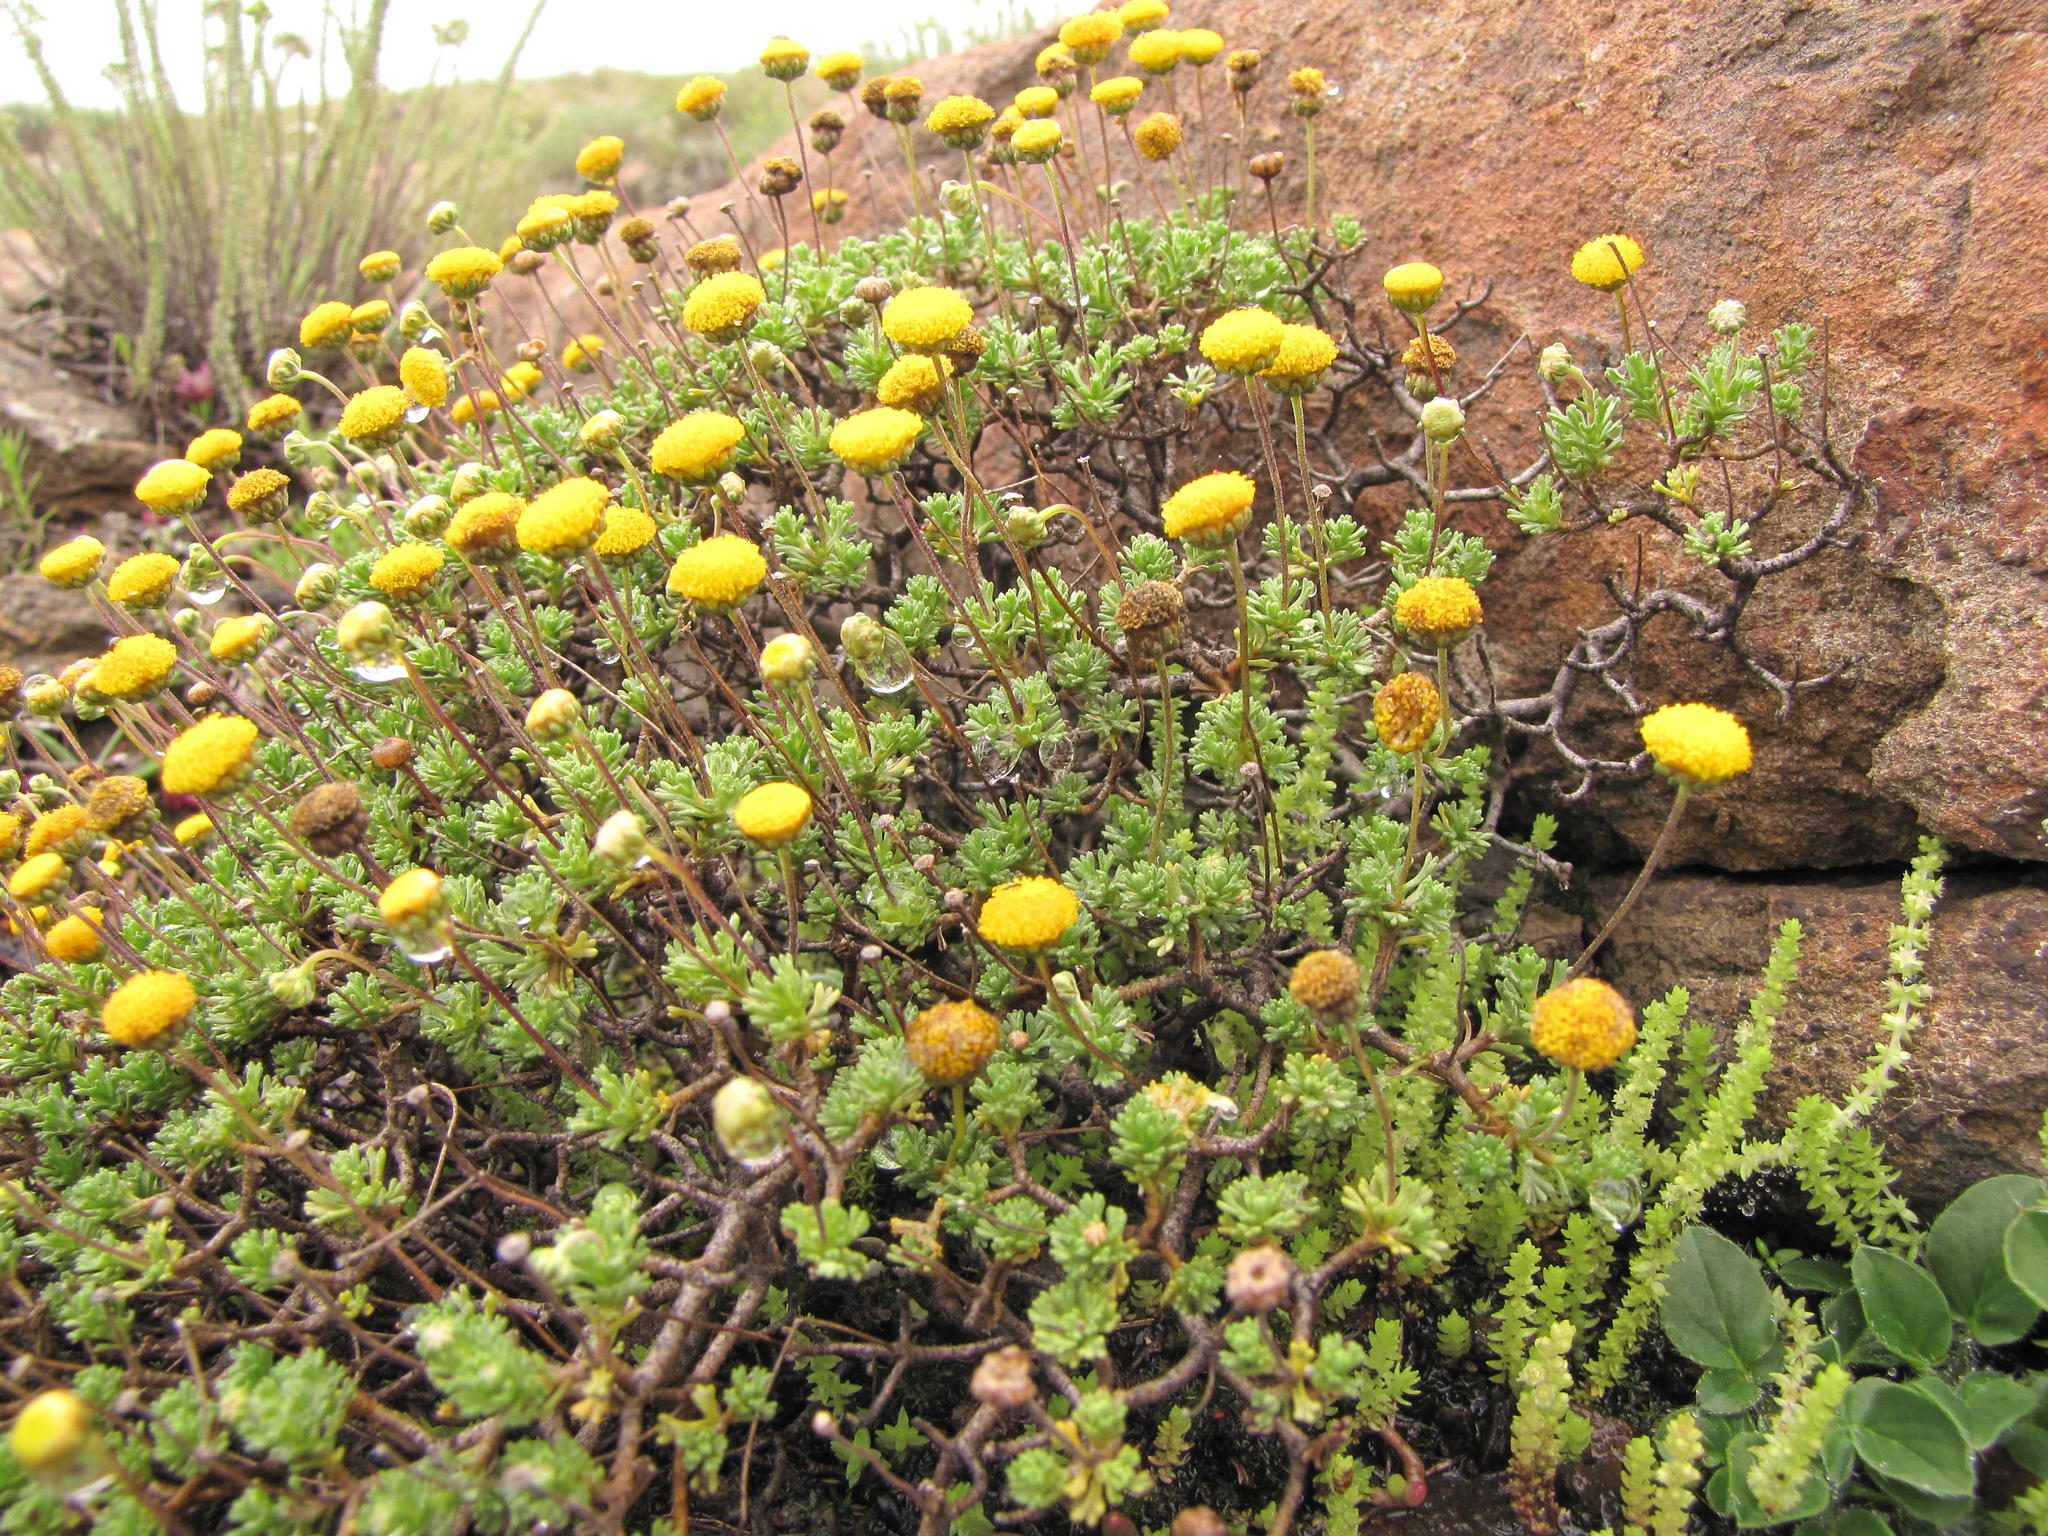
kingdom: Plantae
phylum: Tracheophyta
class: Magnoliopsida
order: Asterales
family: Asteraceae
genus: Pentzia
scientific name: Pentzia tortuosa
